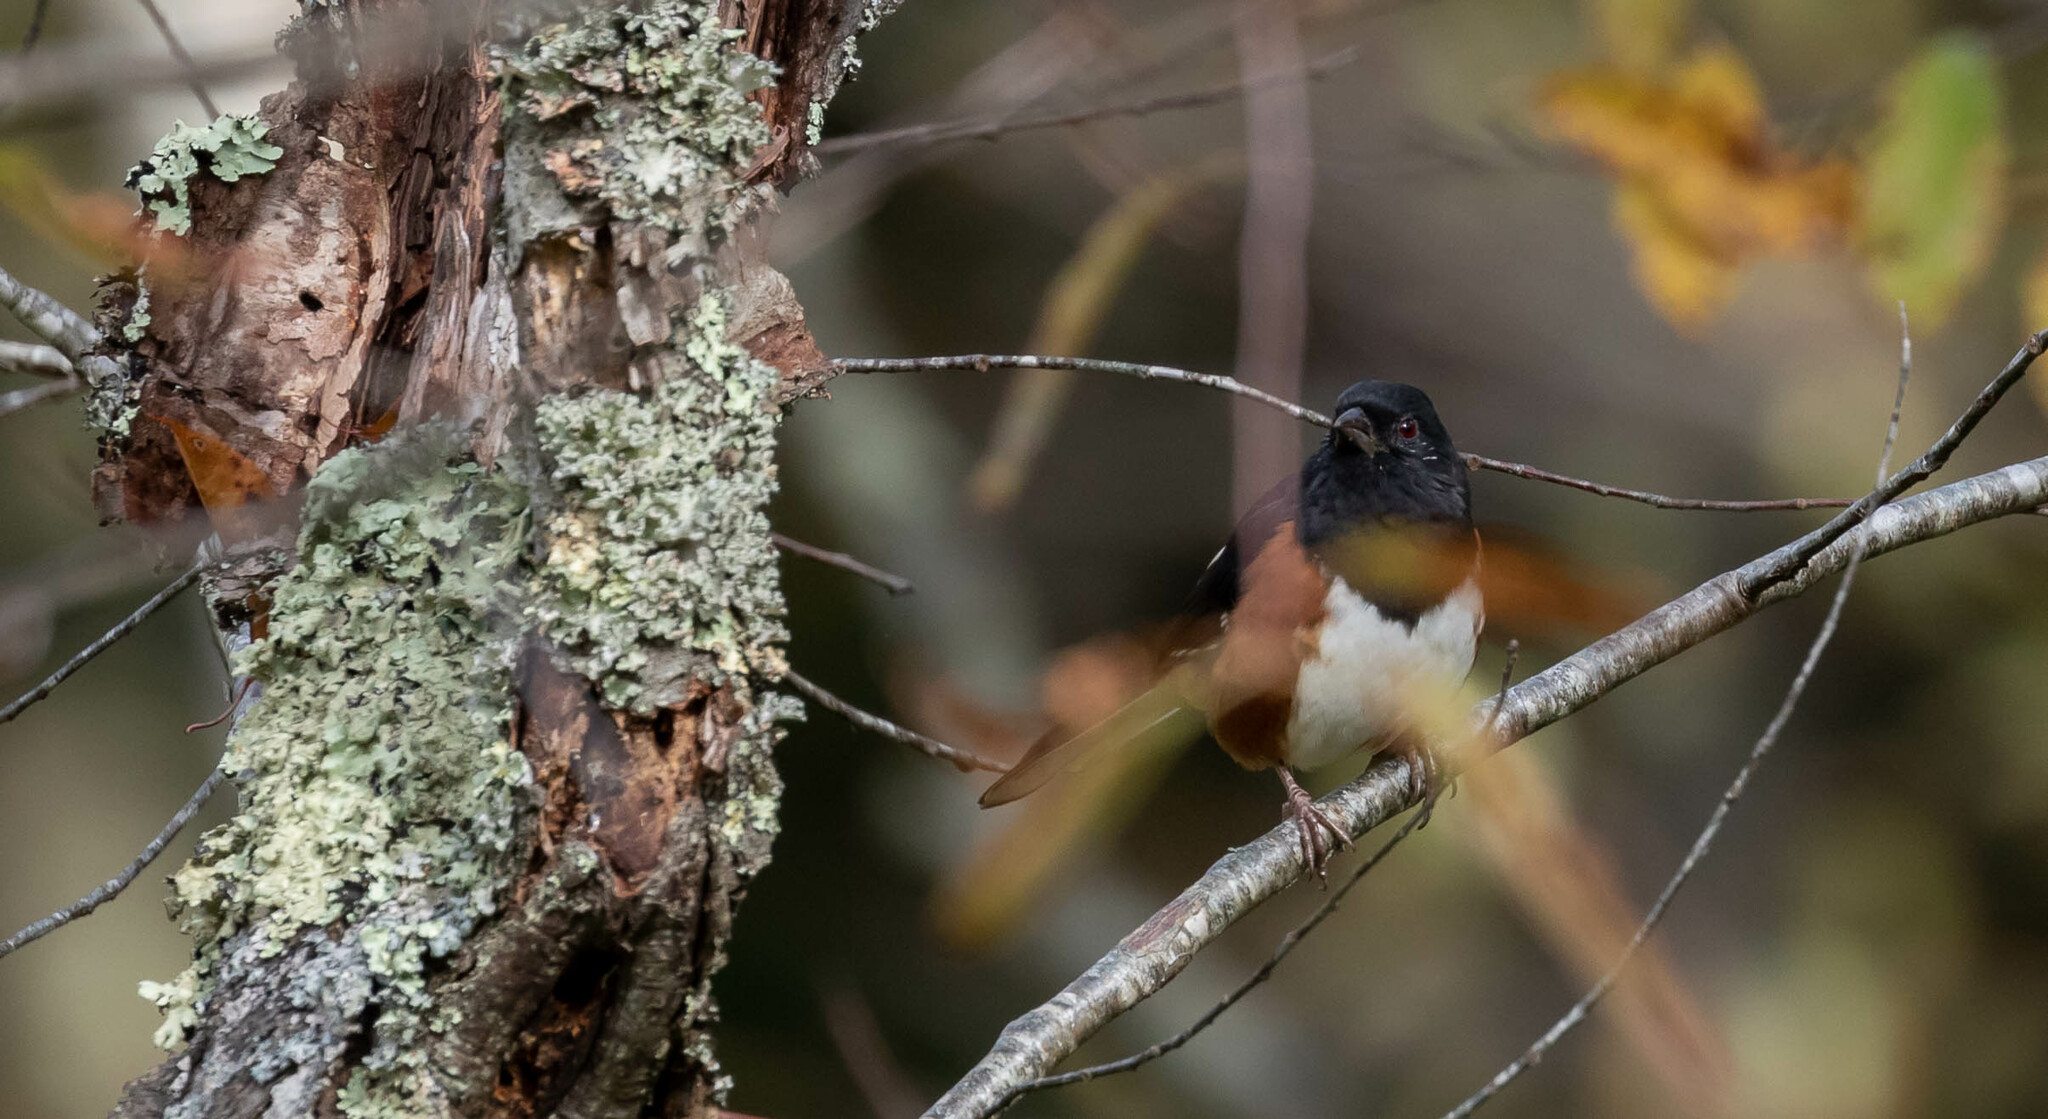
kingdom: Animalia
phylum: Chordata
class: Aves
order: Passeriformes
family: Passerellidae
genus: Pipilo
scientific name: Pipilo erythrophthalmus
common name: Eastern towhee
